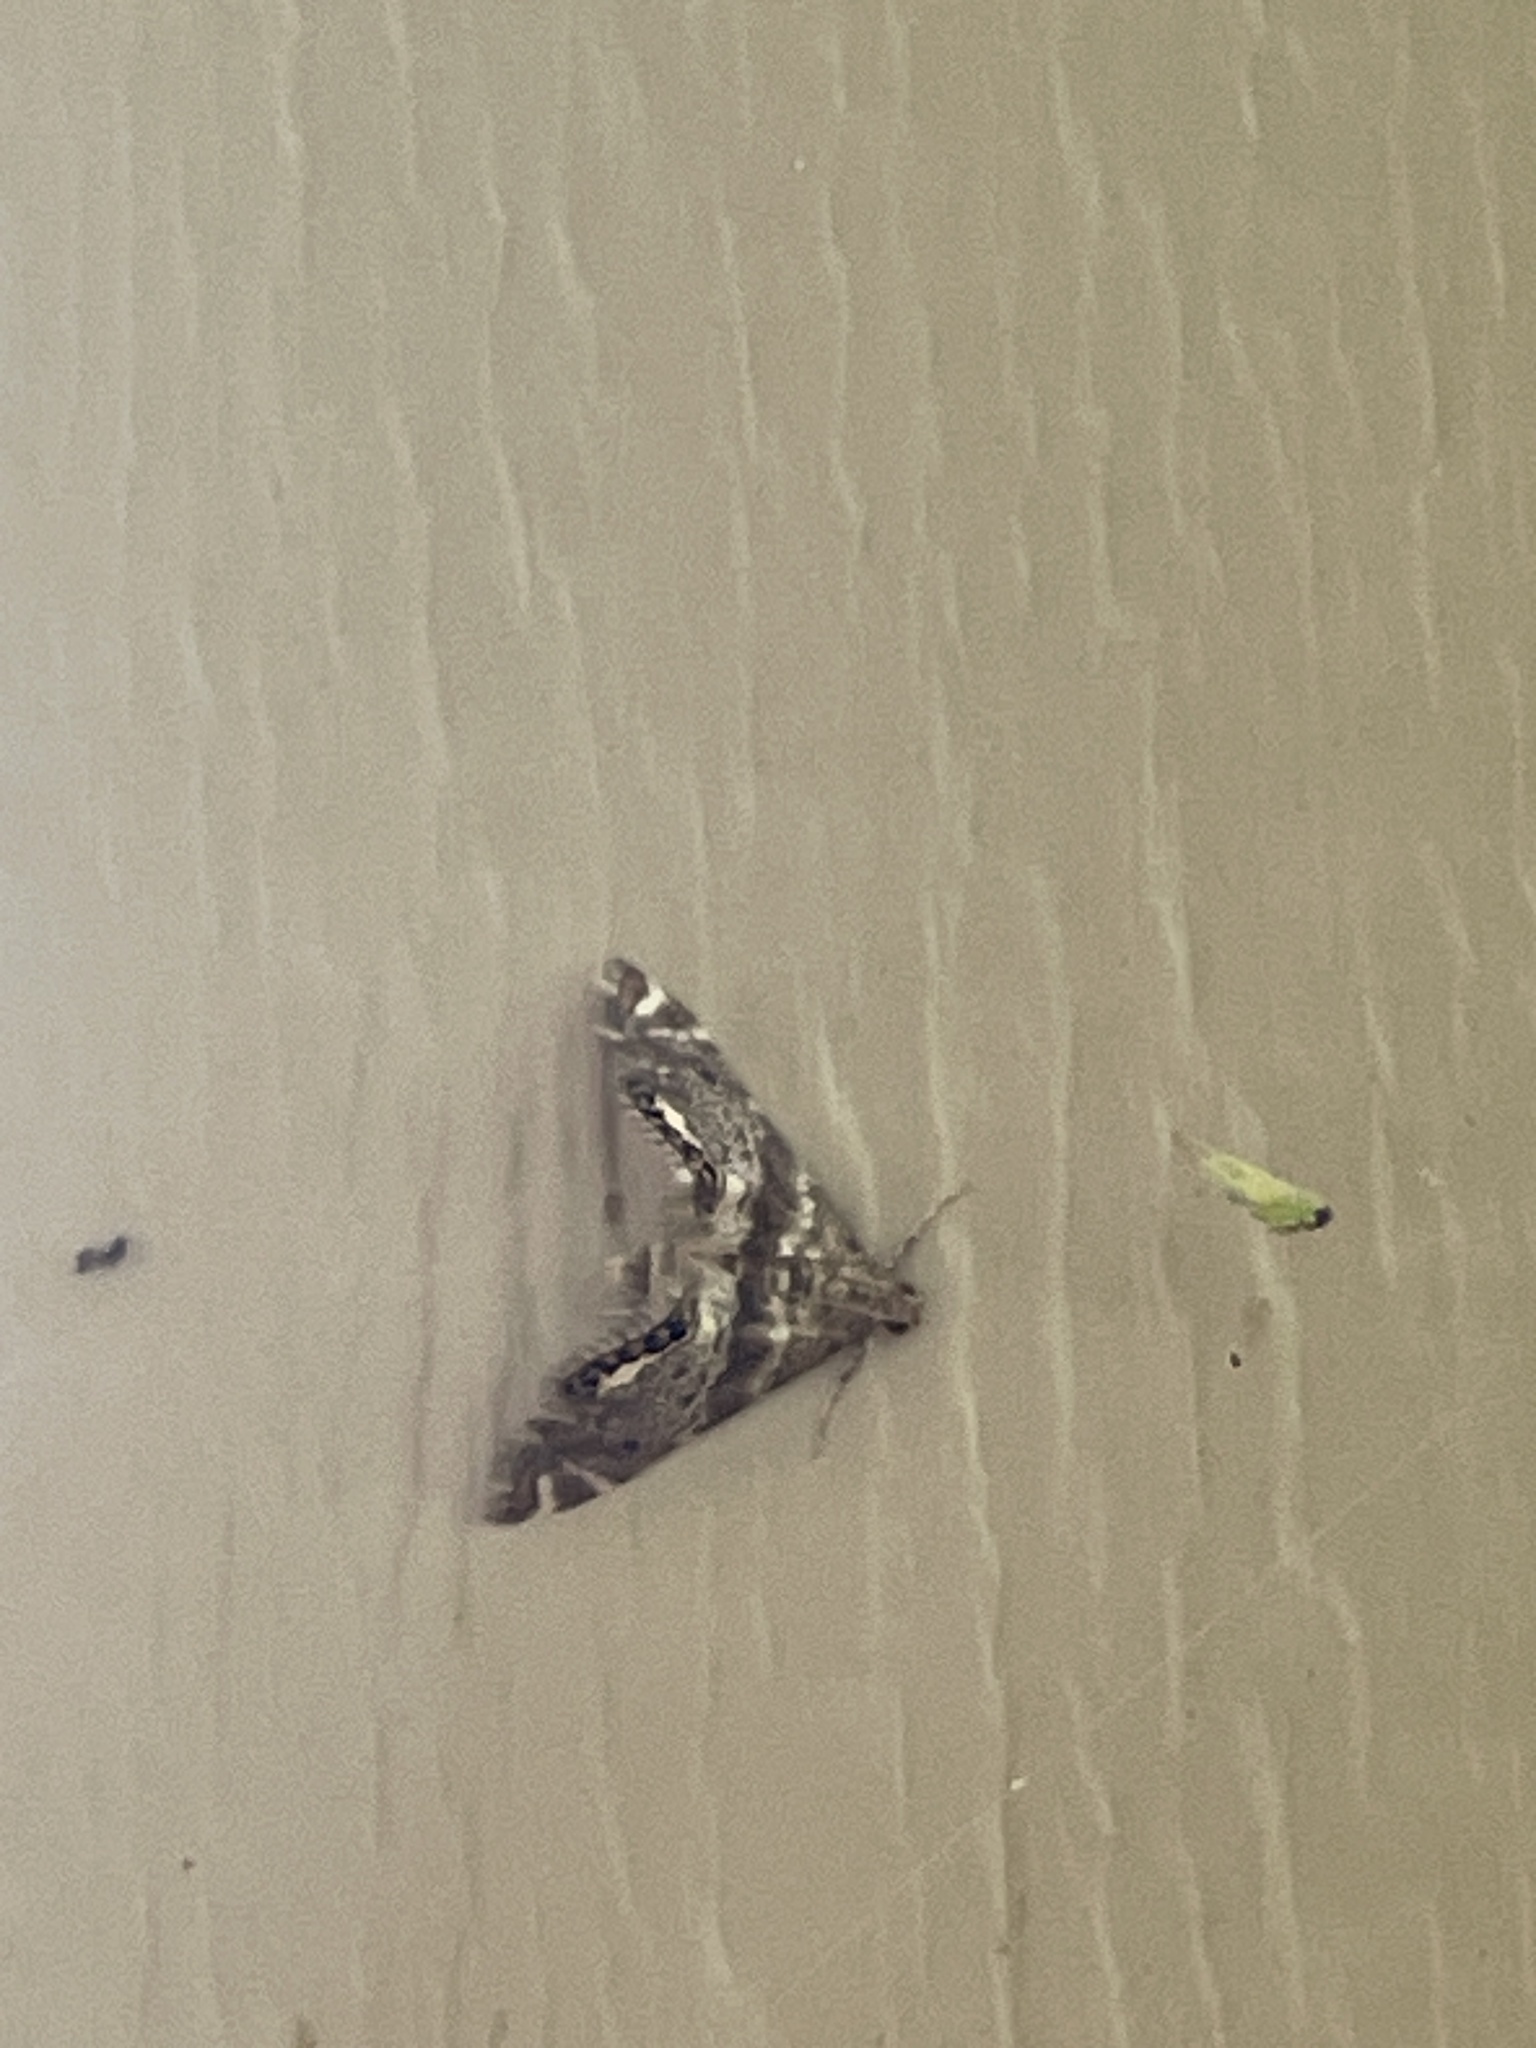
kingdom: Animalia
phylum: Arthropoda
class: Insecta
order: Lepidoptera
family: Crambidae
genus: Petrophila
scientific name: Petrophila fulicalis
